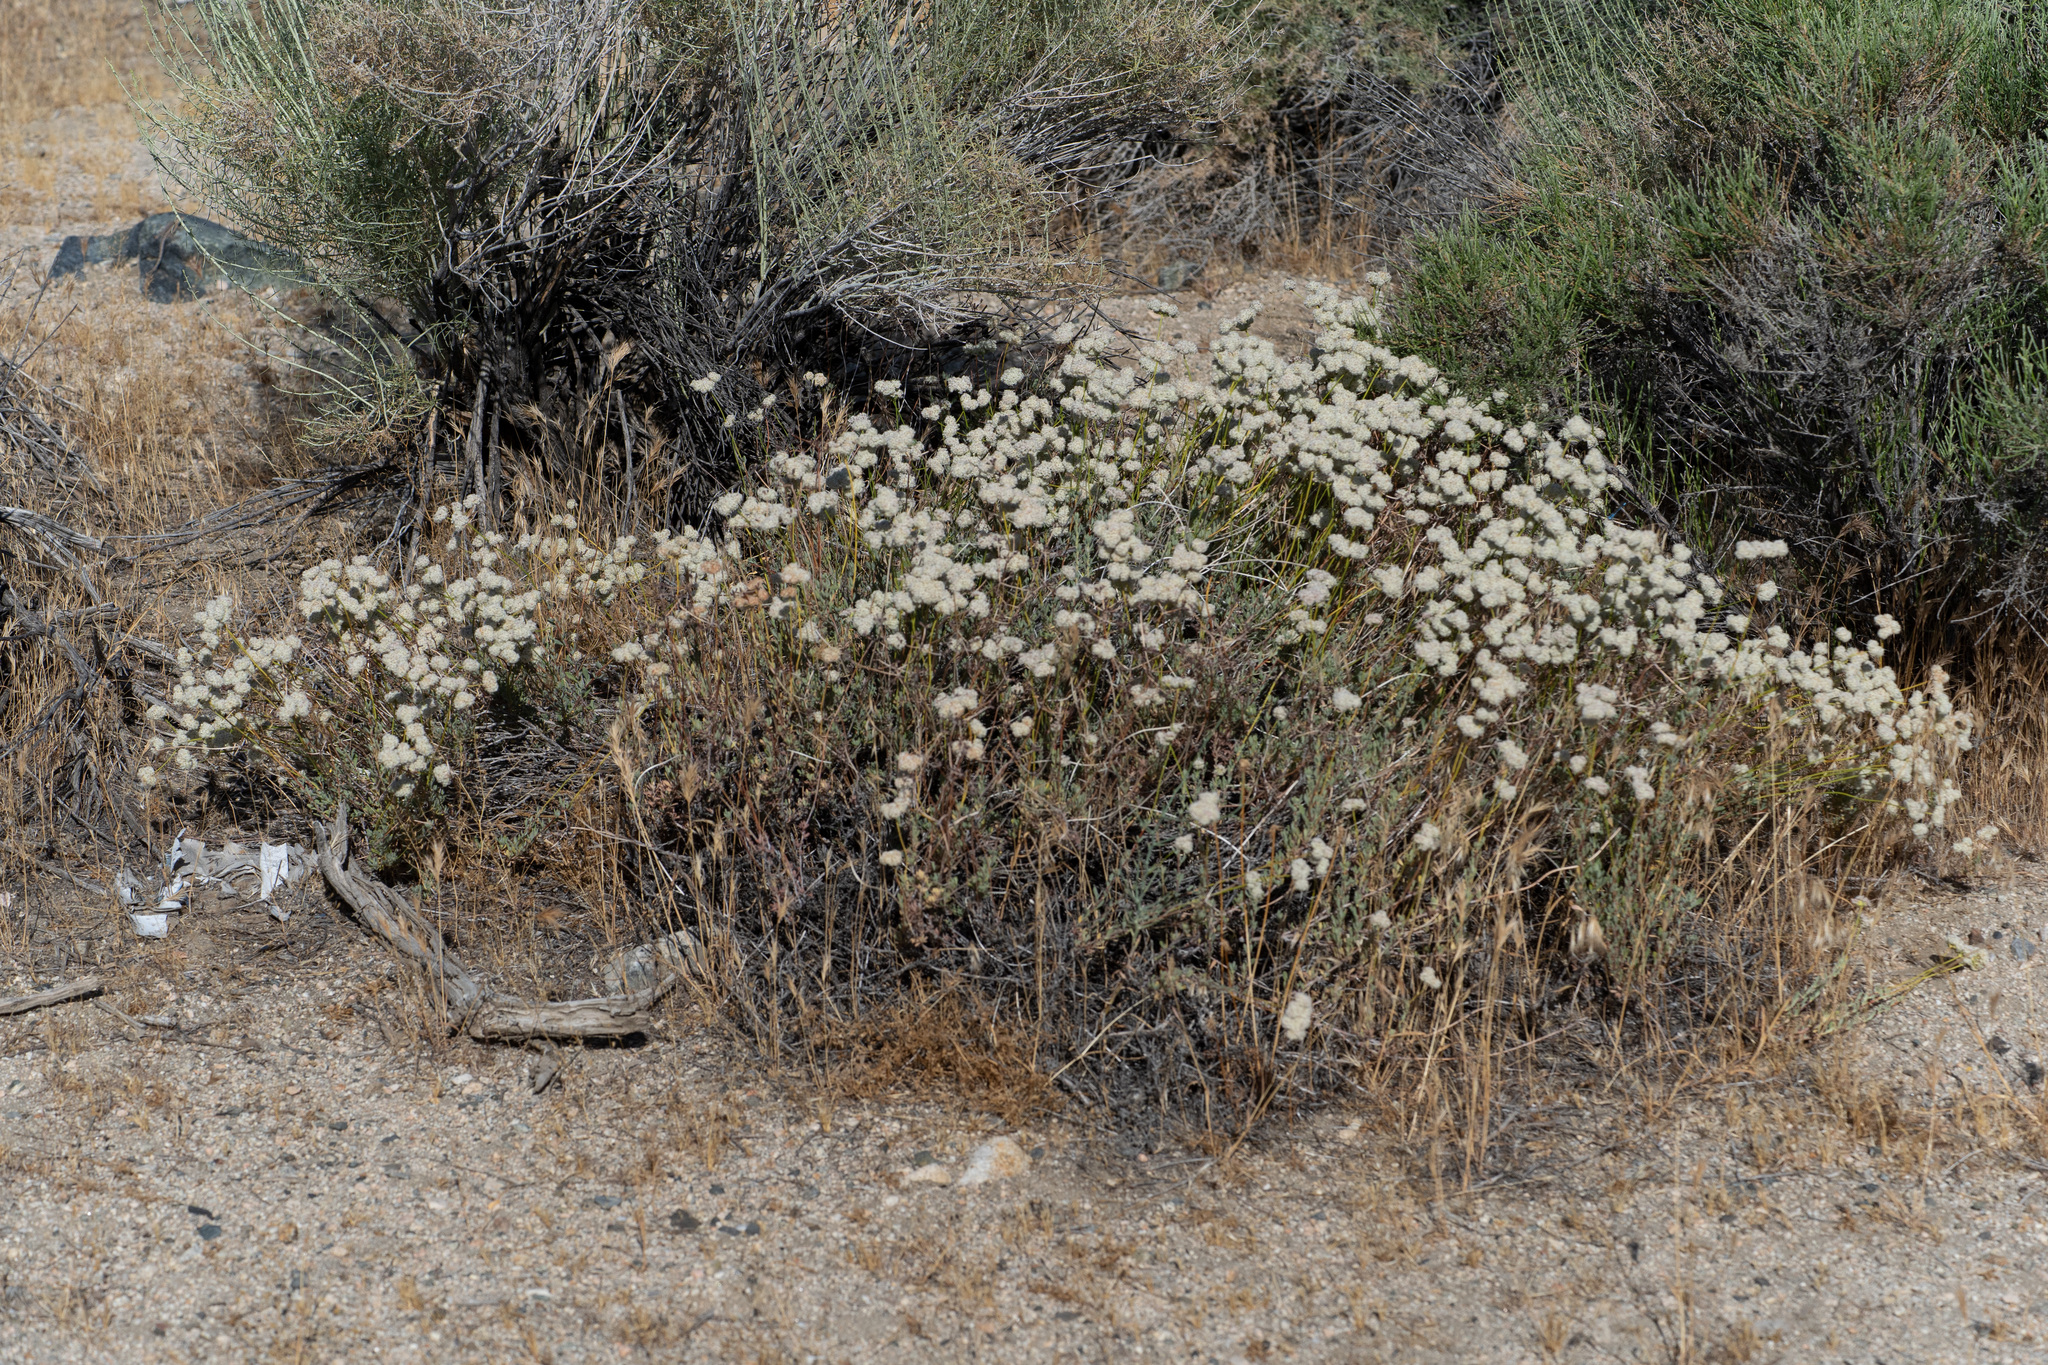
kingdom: Plantae
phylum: Tracheophyta
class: Magnoliopsida
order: Caryophyllales
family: Polygonaceae
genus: Eriogonum
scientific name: Eriogonum fasciculatum
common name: California wild buckwheat
